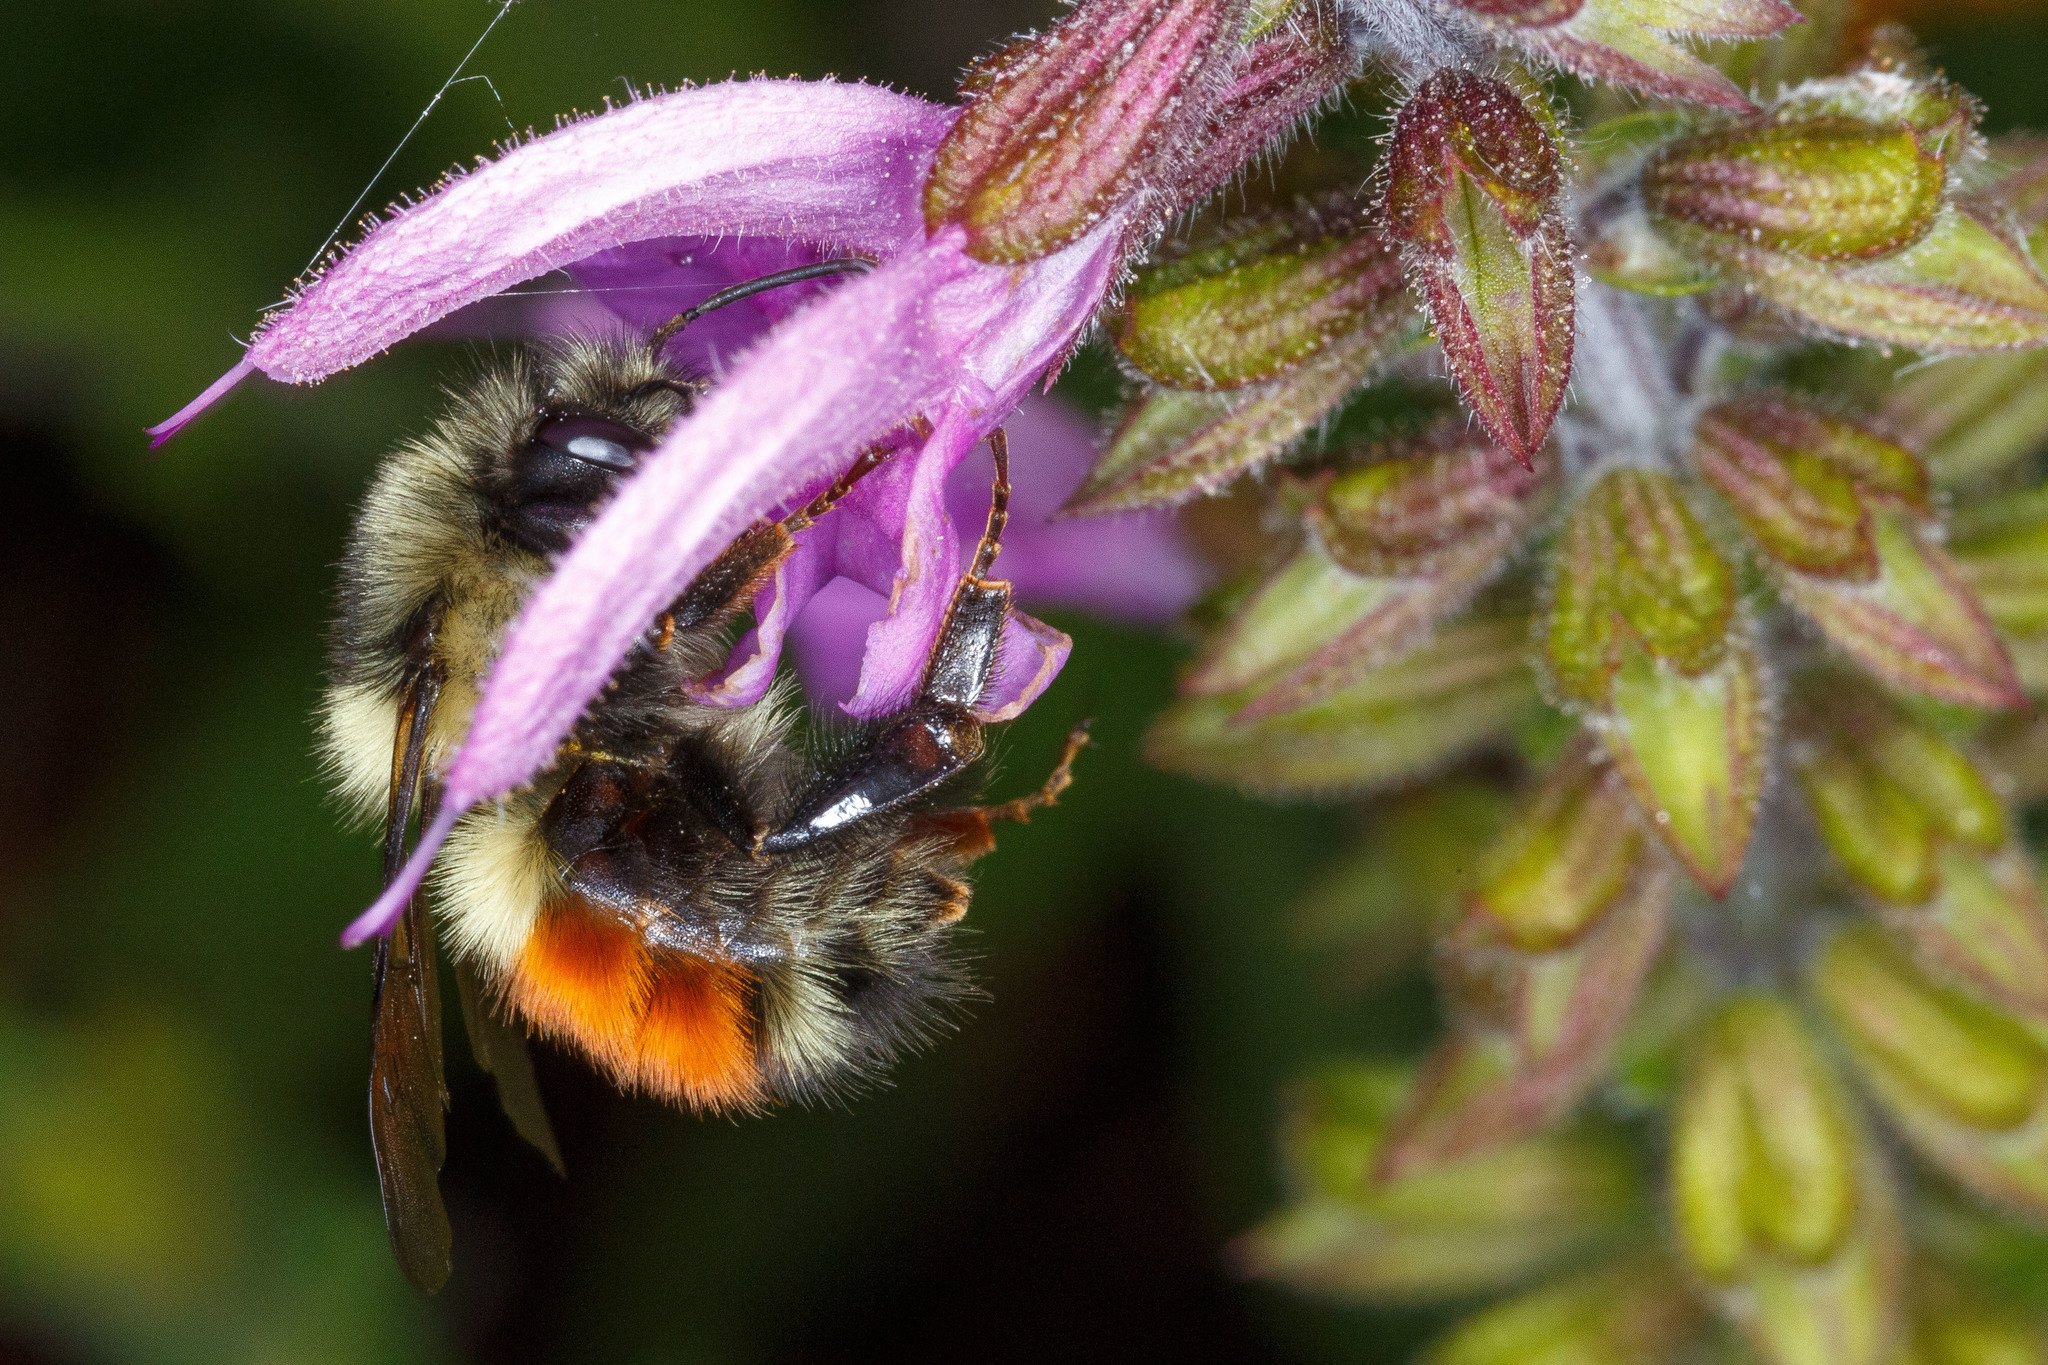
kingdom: Animalia
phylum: Arthropoda
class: Insecta
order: Hymenoptera
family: Apidae
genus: Bombus
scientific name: Bombus melanopygus
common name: Black tail bumble bee
